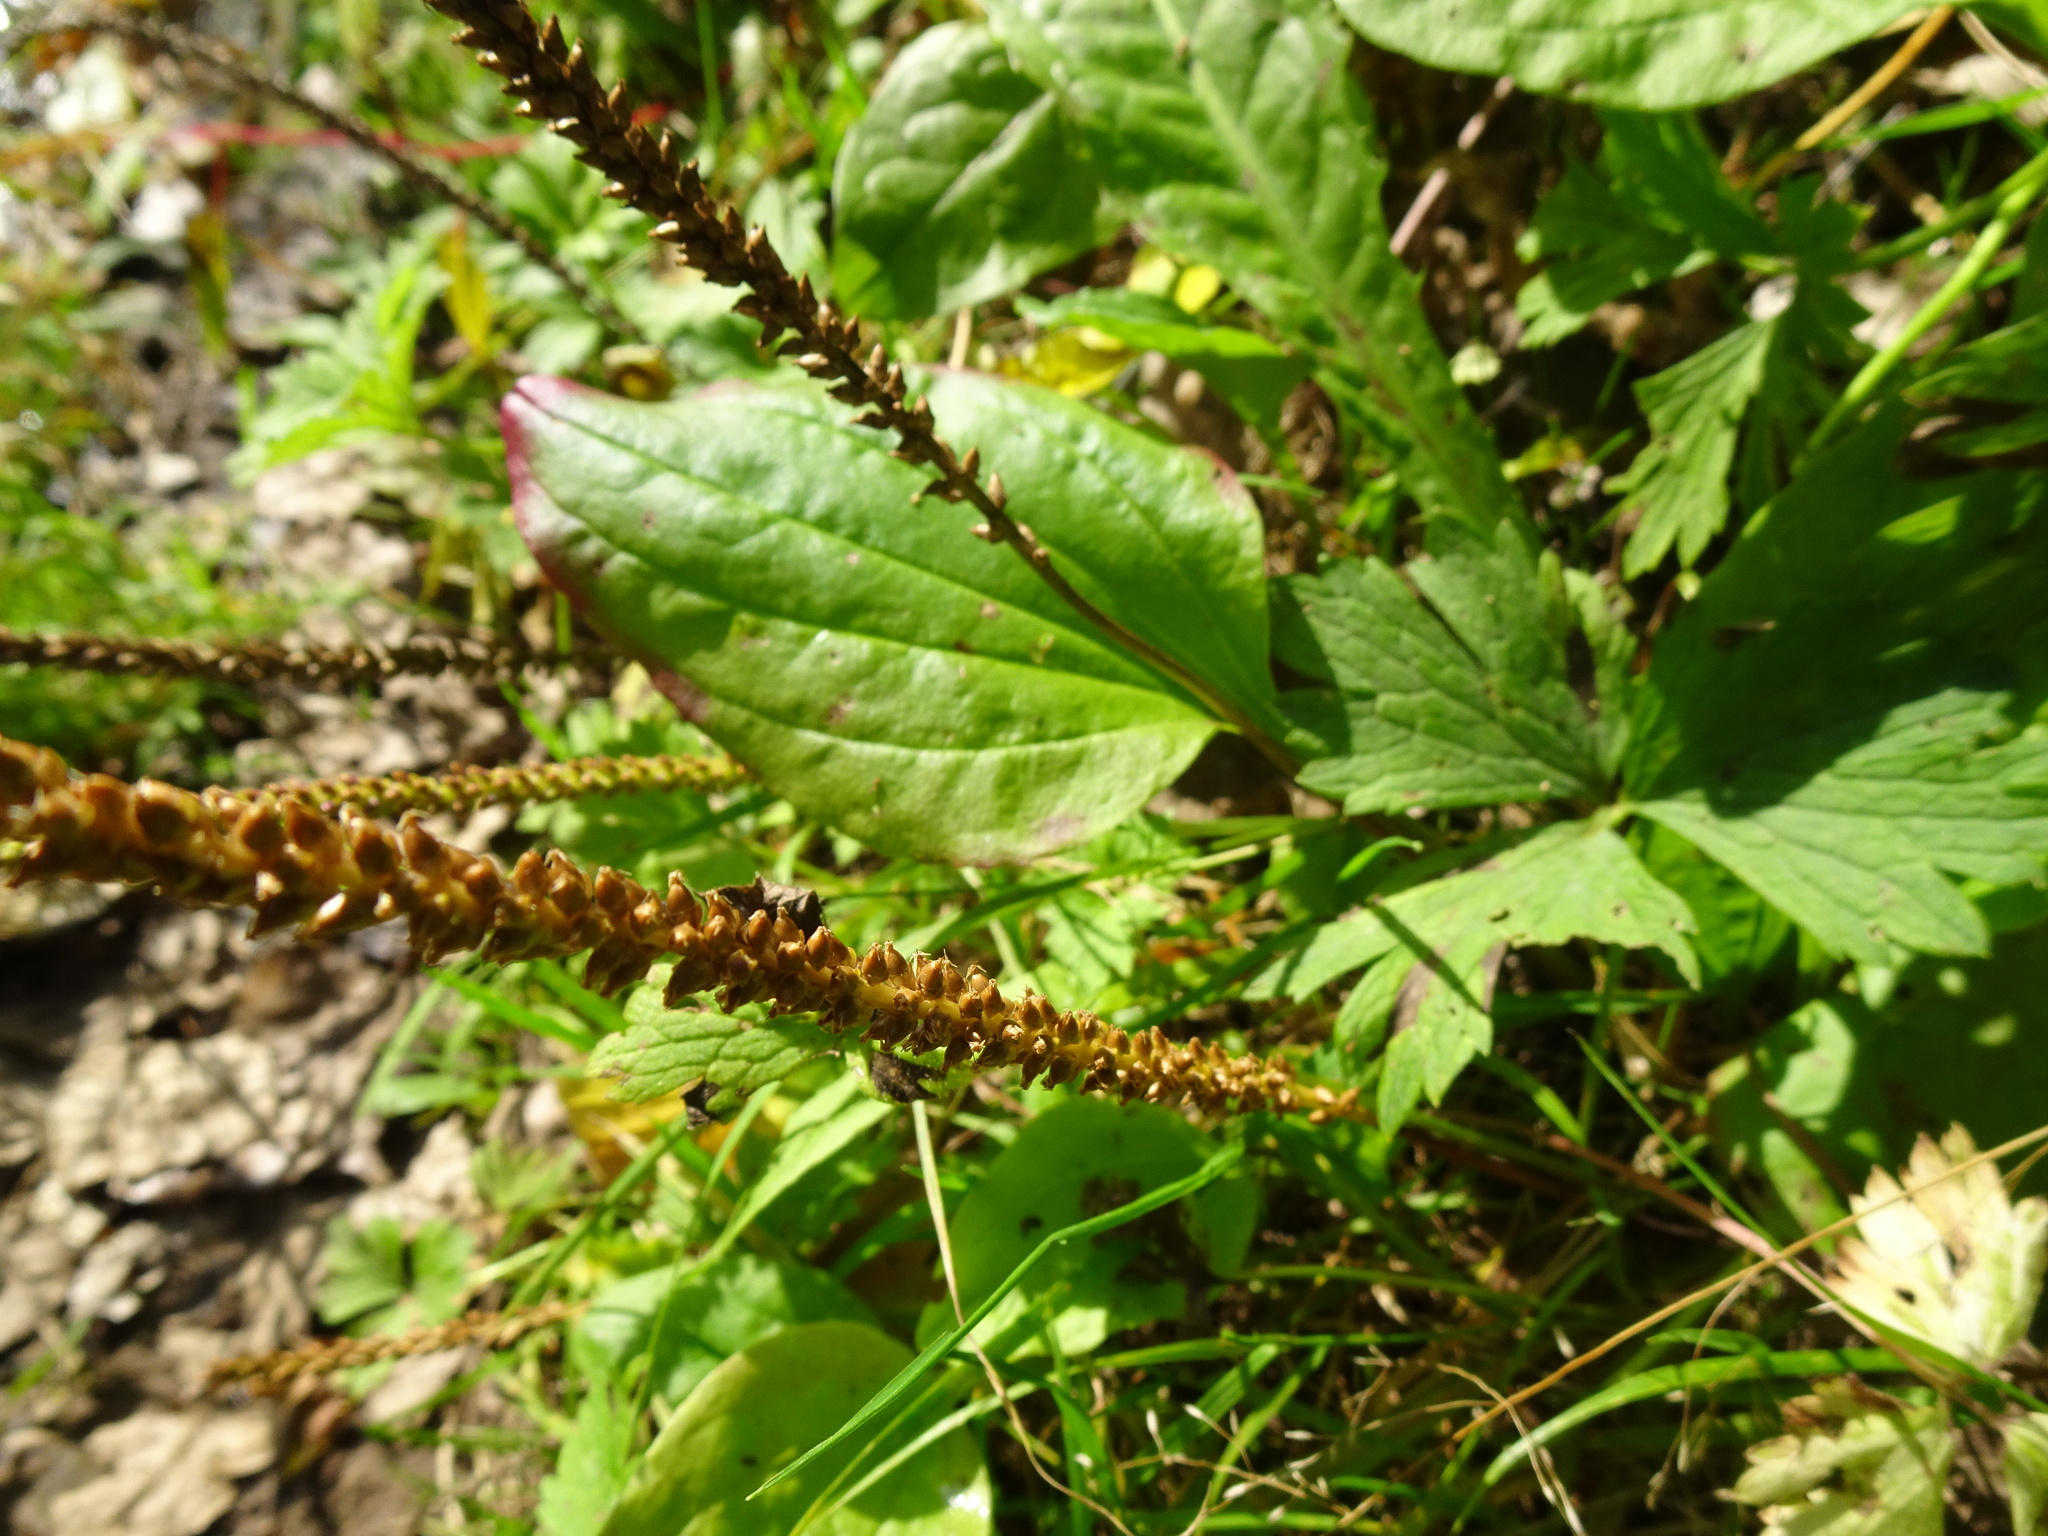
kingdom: Plantae
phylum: Tracheophyta
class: Magnoliopsida
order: Lamiales
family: Plantaginaceae
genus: Plantago
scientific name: Plantago major
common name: Common plantain
